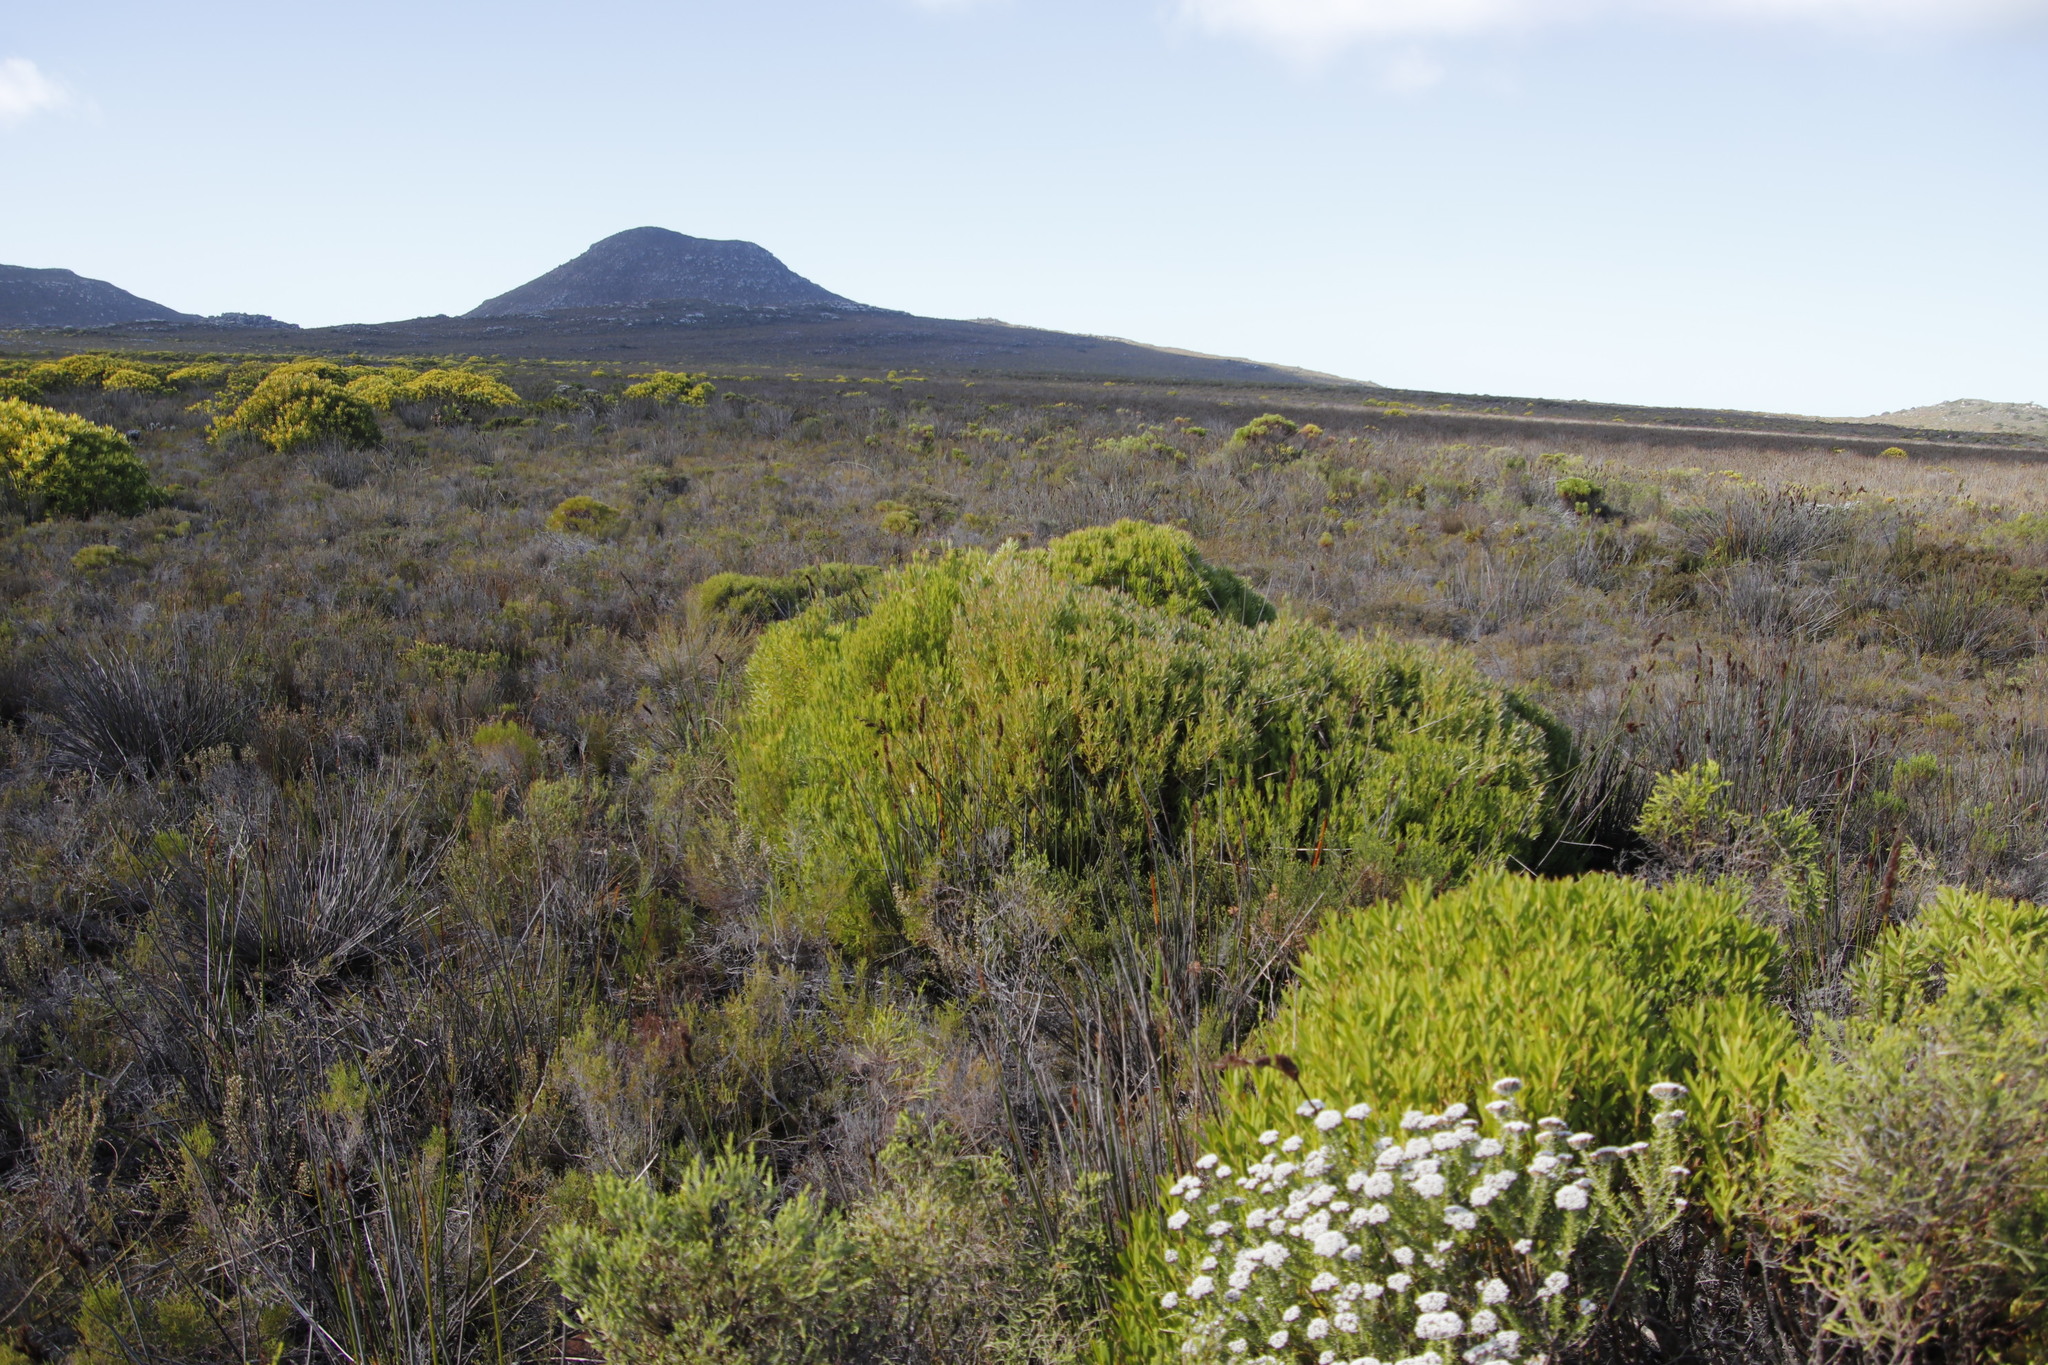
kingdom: Plantae
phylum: Tracheophyta
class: Magnoliopsida
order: Proteales
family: Proteaceae
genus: Leucadendron
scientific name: Leucadendron xanthoconus
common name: Sickle-leaf conebush
